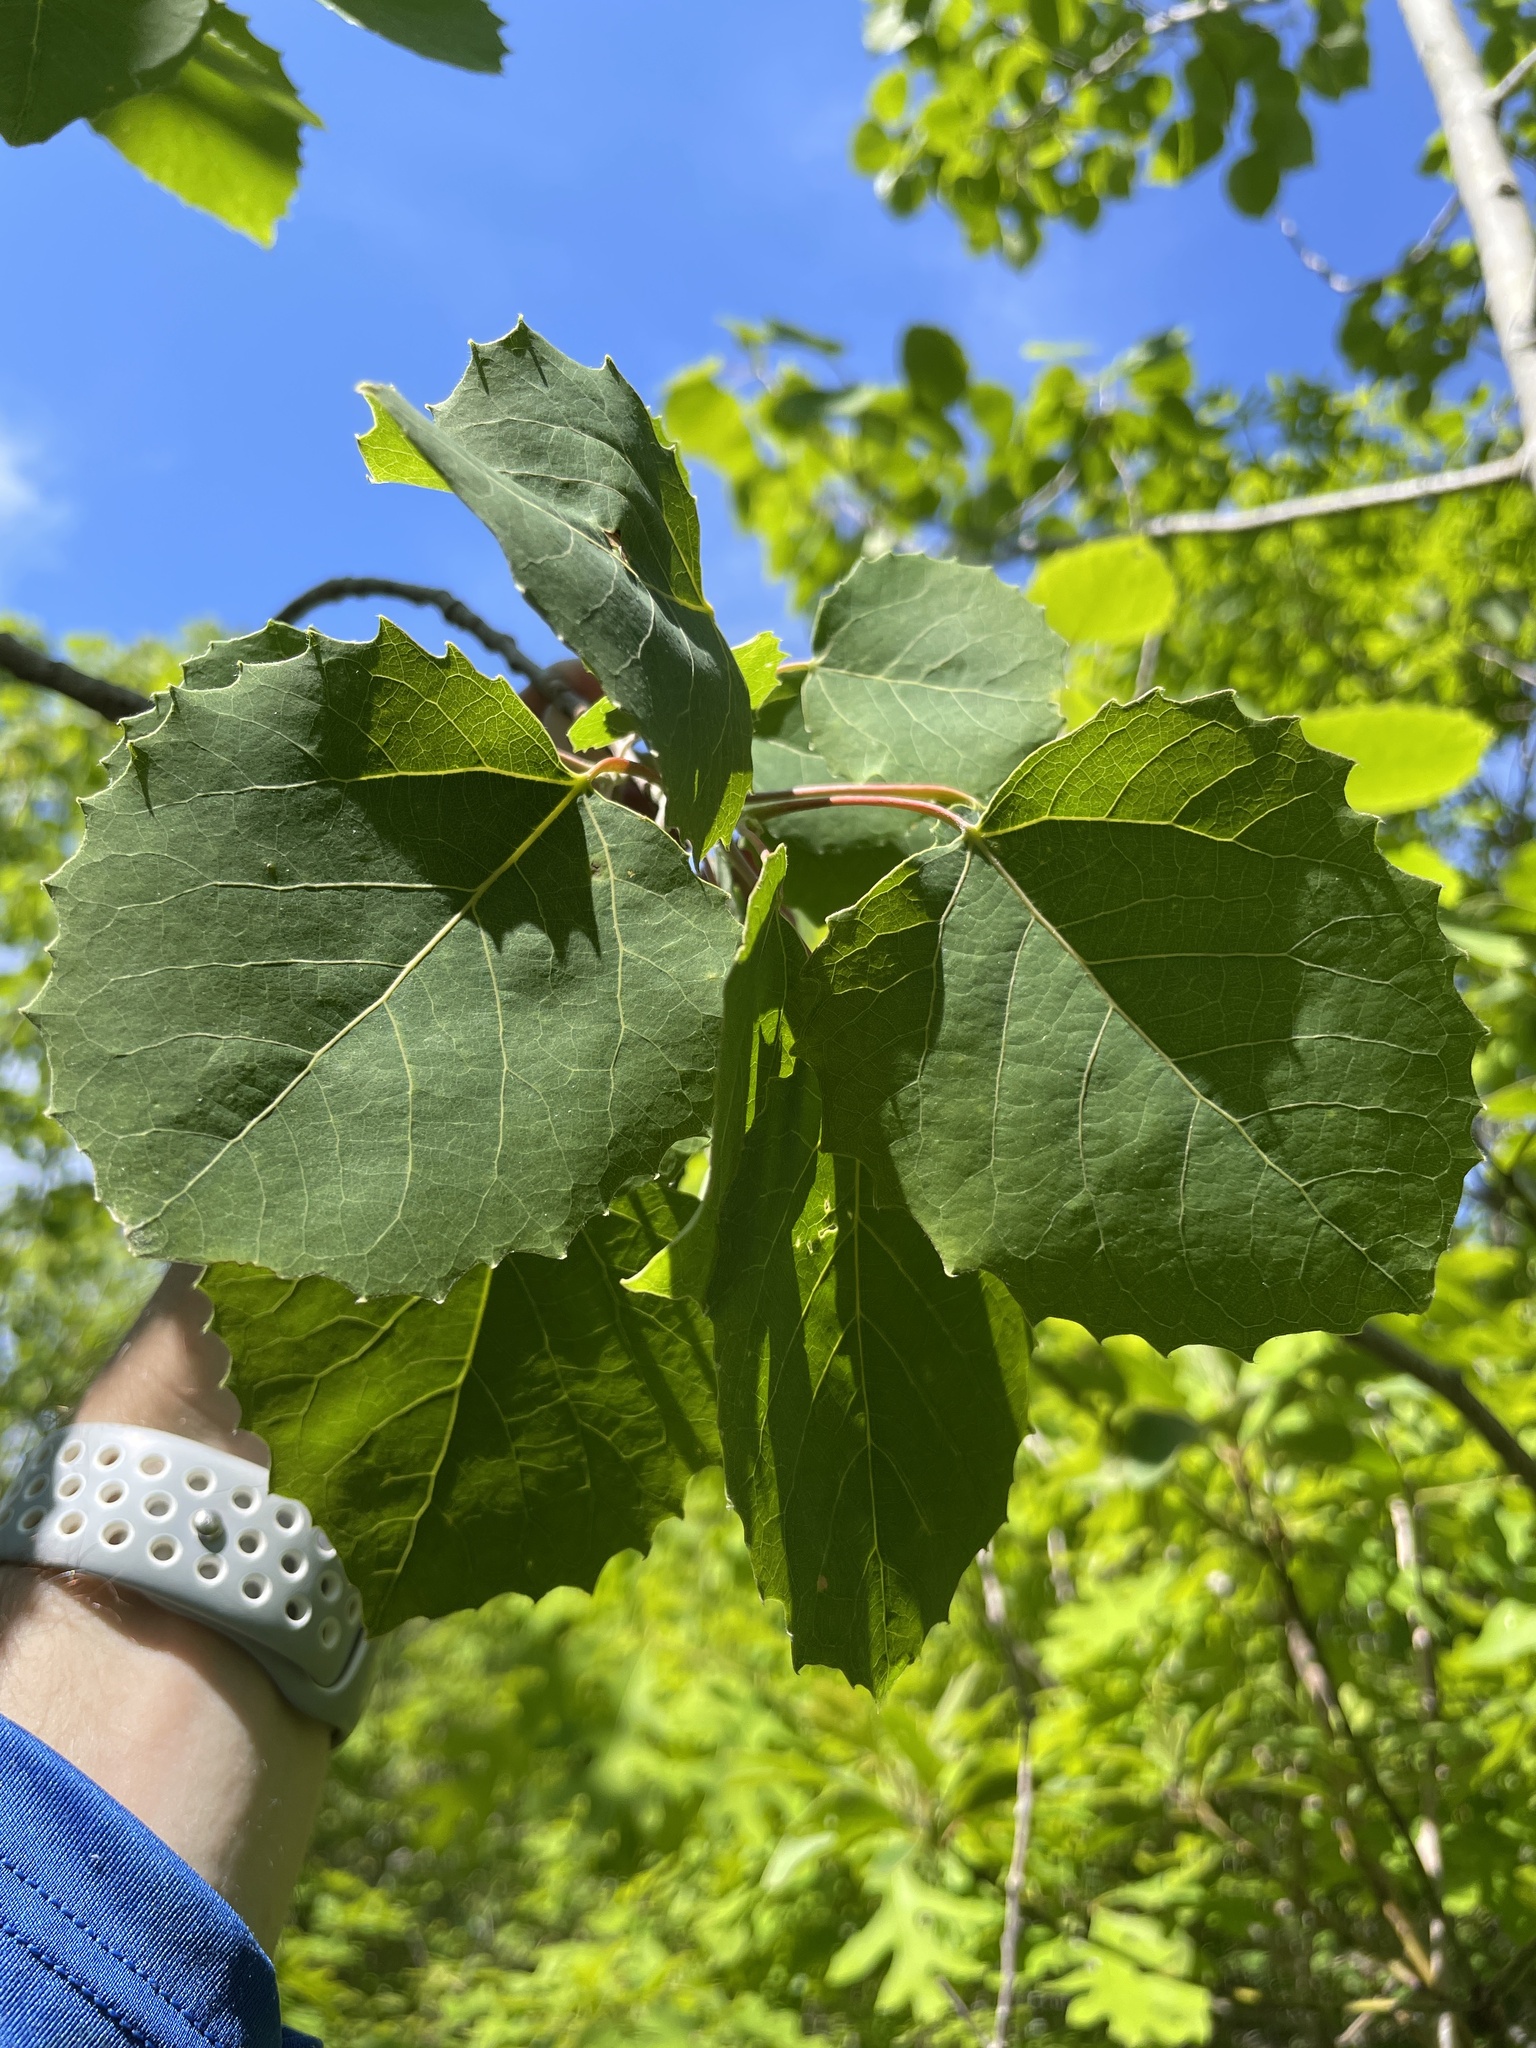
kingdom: Plantae
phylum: Tracheophyta
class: Magnoliopsida
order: Malpighiales
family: Salicaceae
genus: Populus
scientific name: Populus grandidentata
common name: Bigtooth aspen
